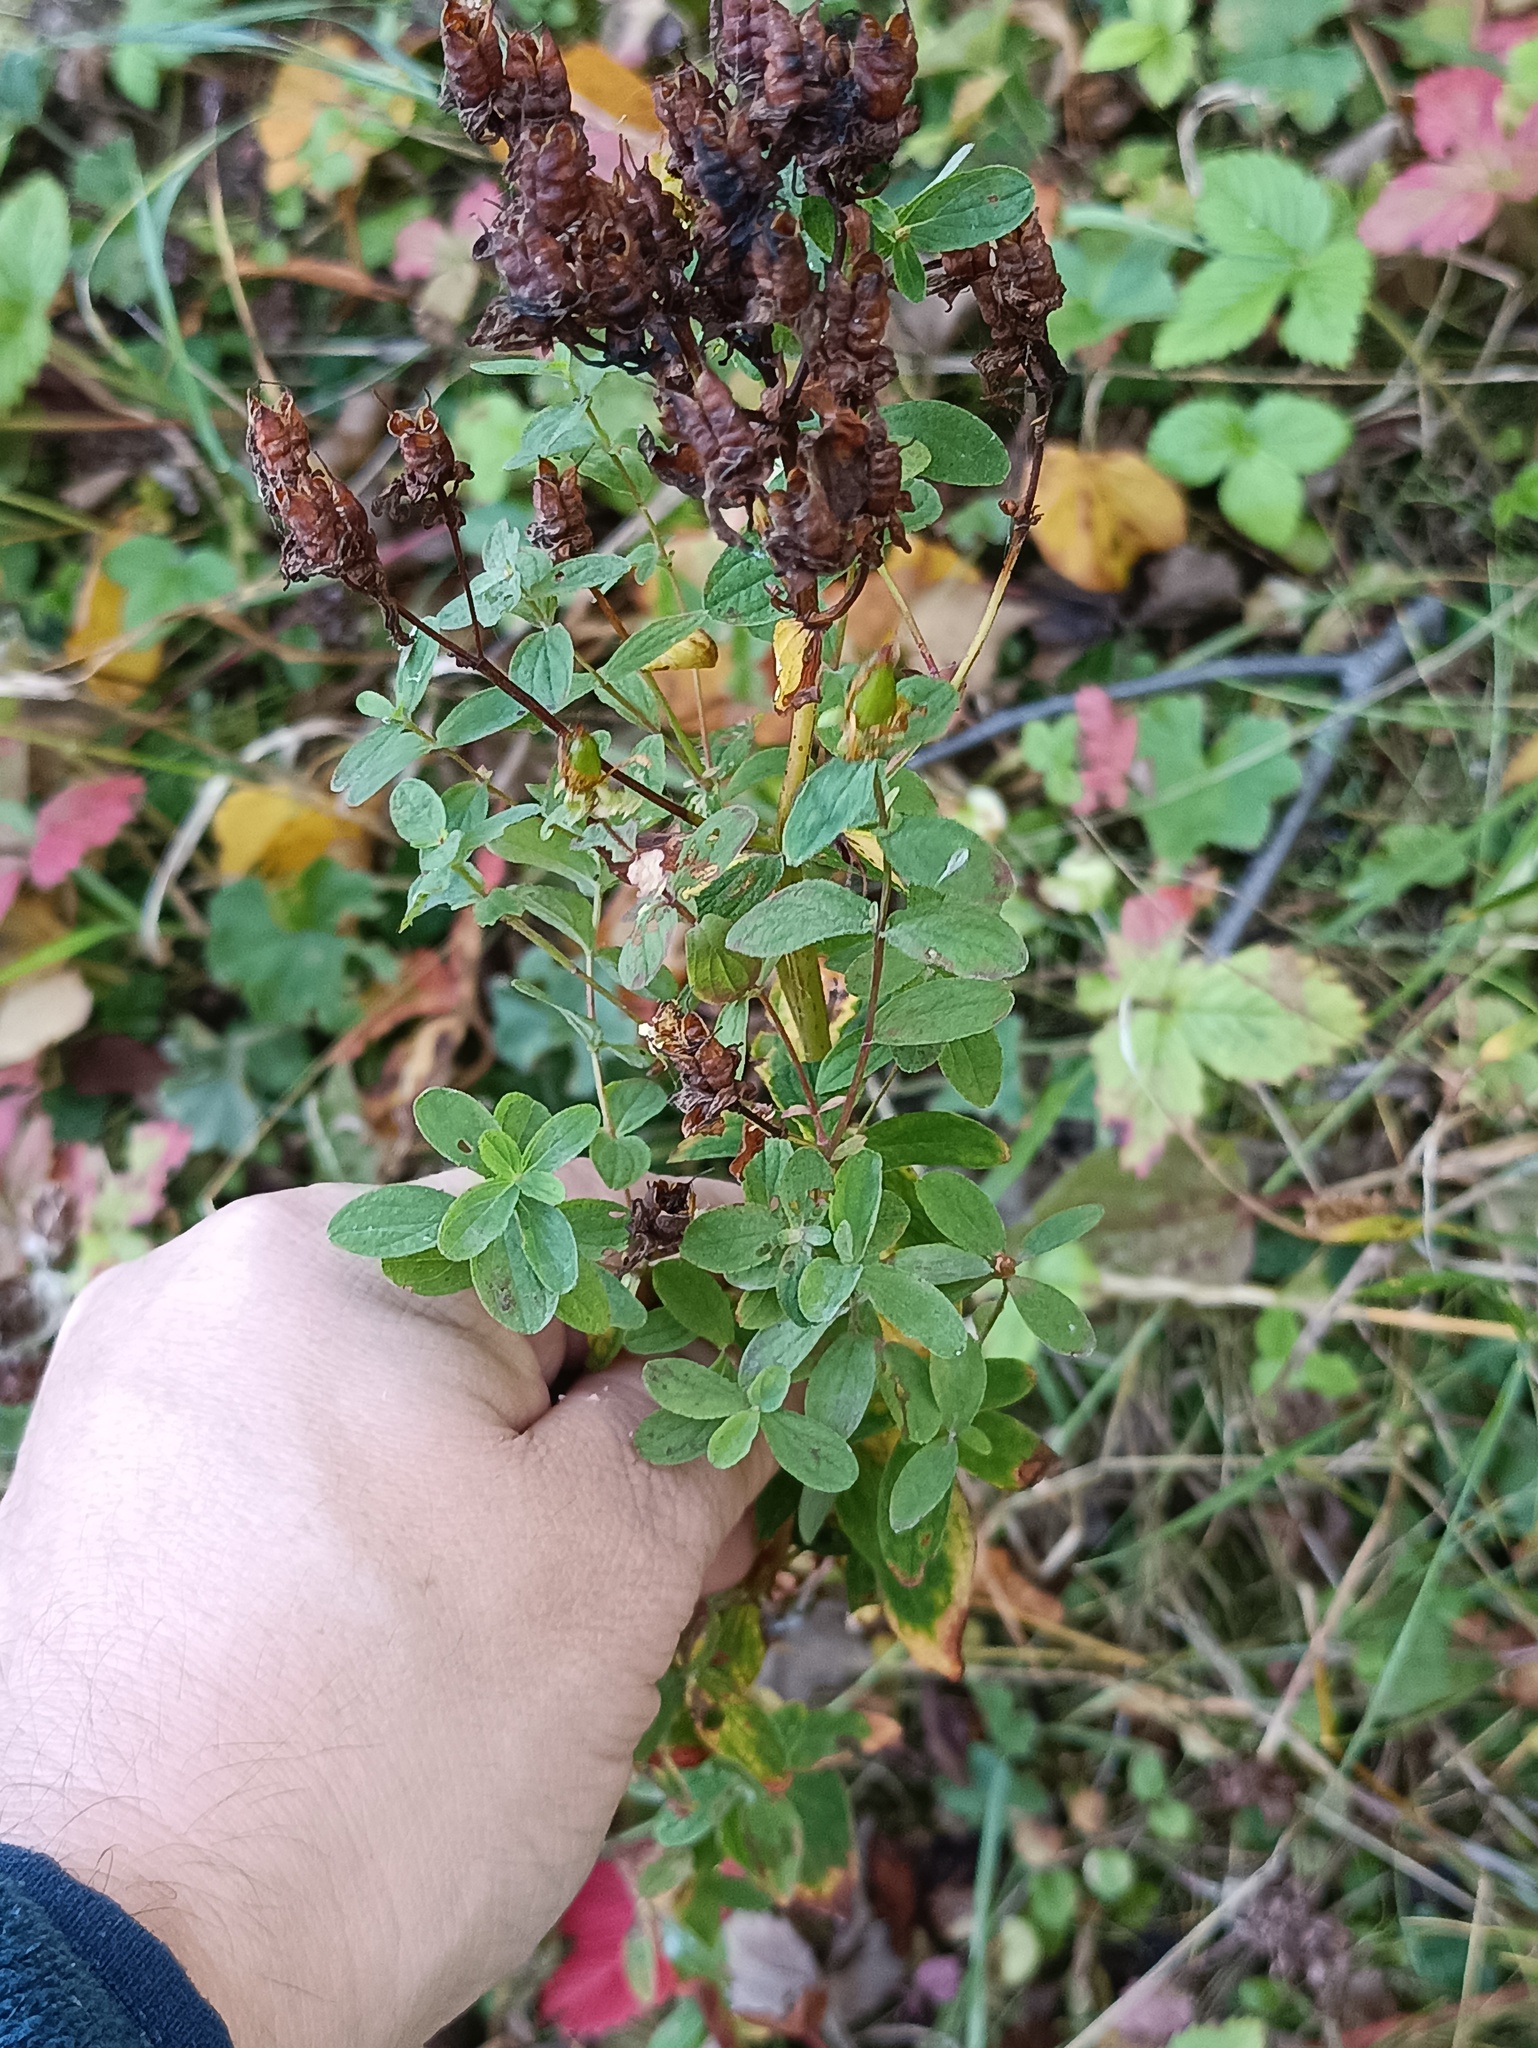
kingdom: Plantae
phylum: Tracheophyta
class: Magnoliopsida
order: Malpighiales
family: Hypericaceae
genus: Hypericum
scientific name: Hypericum perforatum
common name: Common st. johnswort
